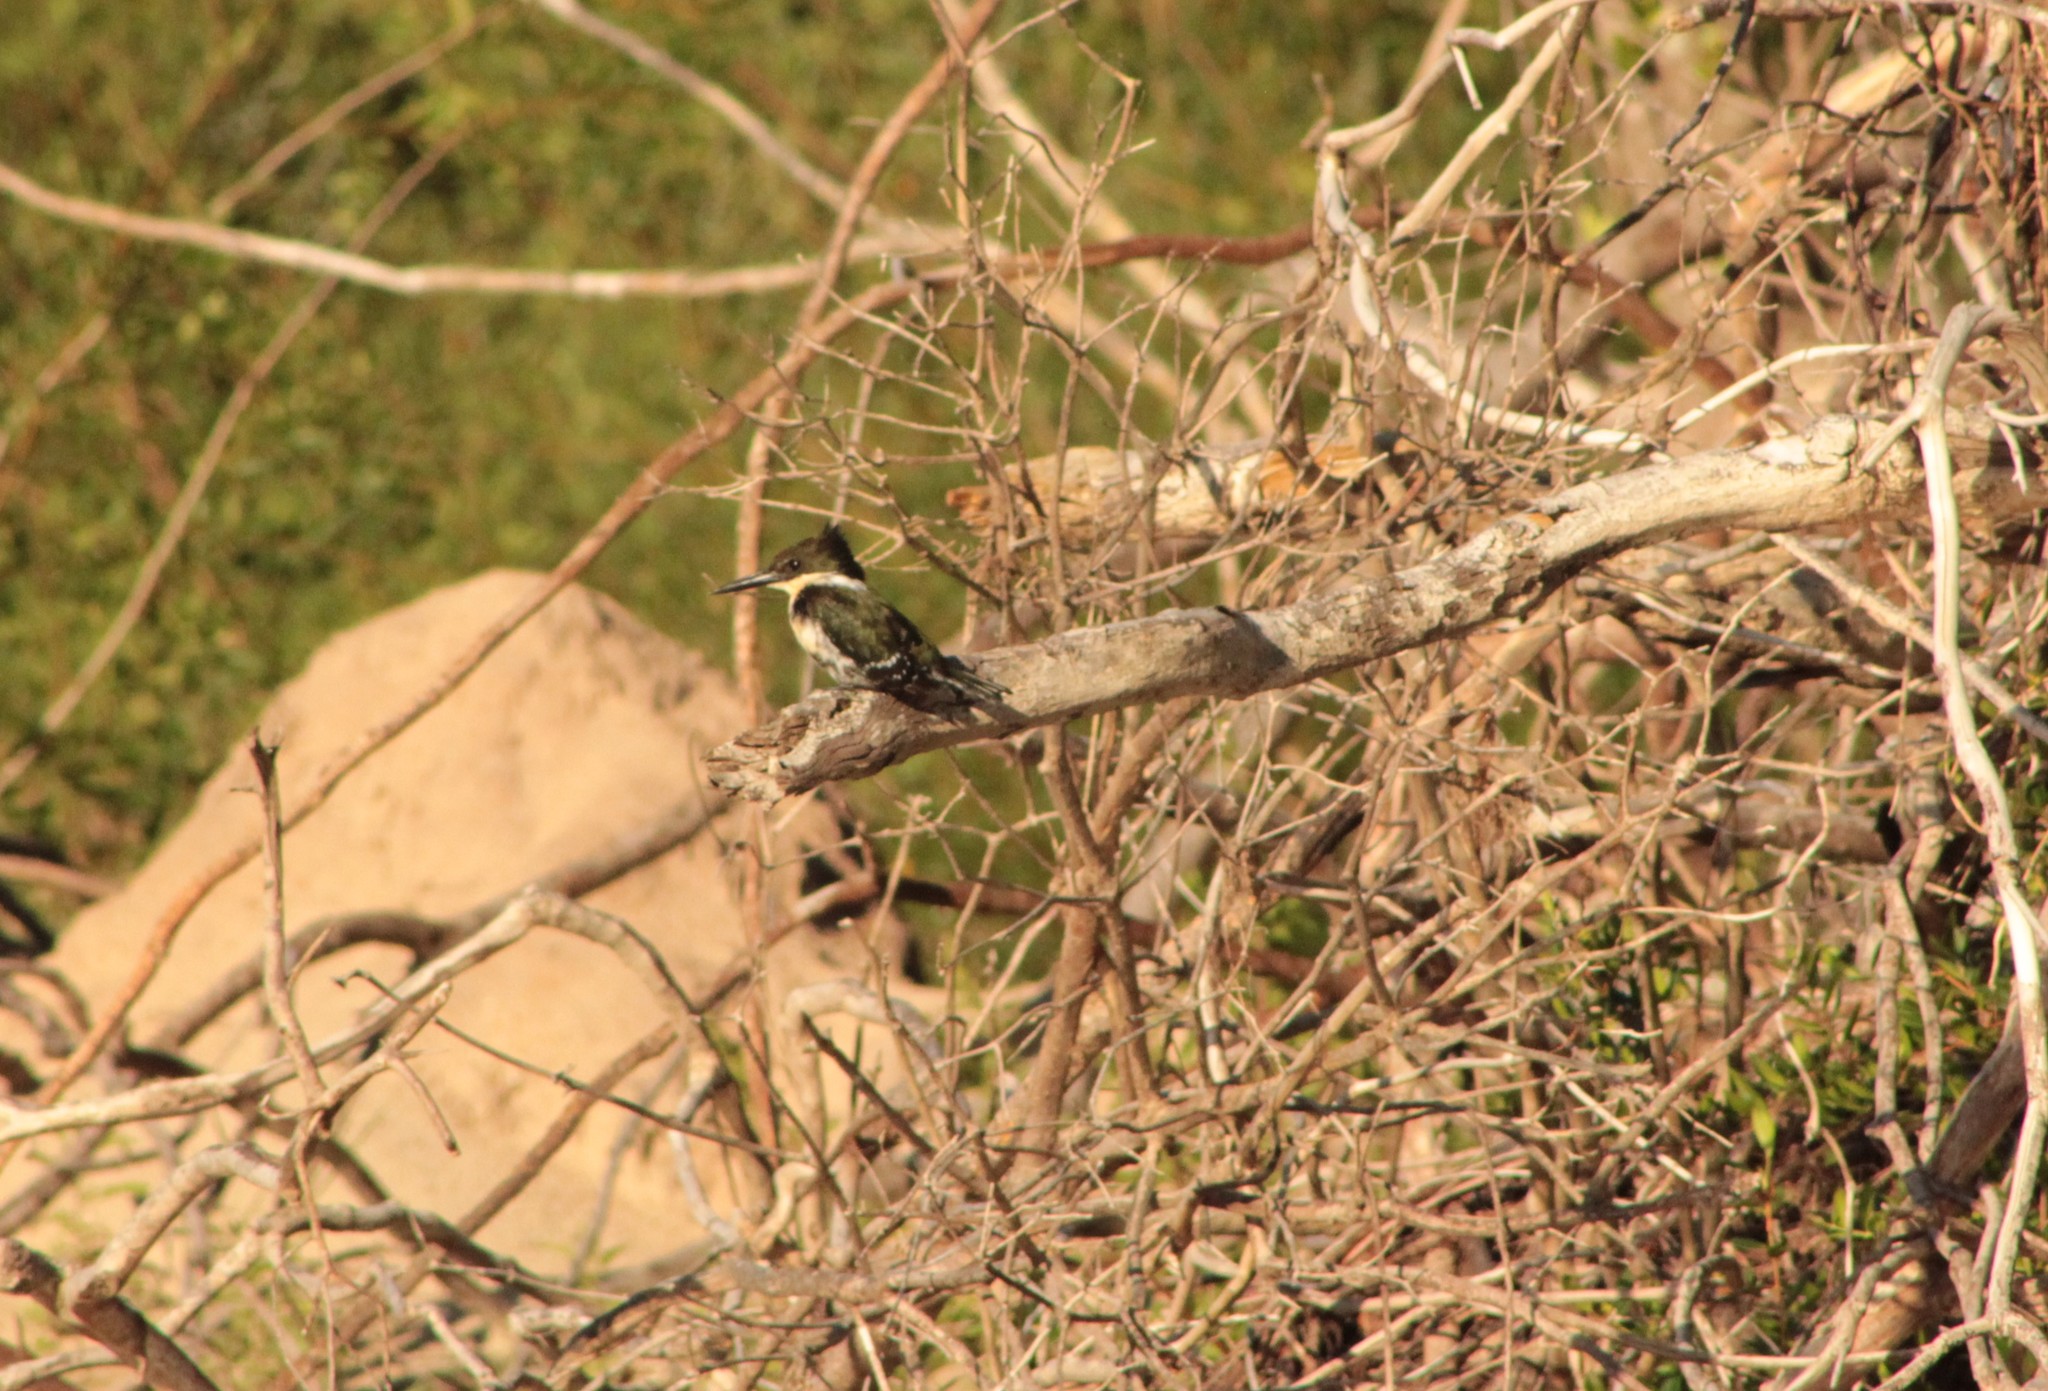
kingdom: Animalia
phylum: Chordata
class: Aves
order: Coraciiformes
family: Alcedinidae
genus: Chloroceryle
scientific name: Chloroceryle amazona
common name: Amazon kingfisher
